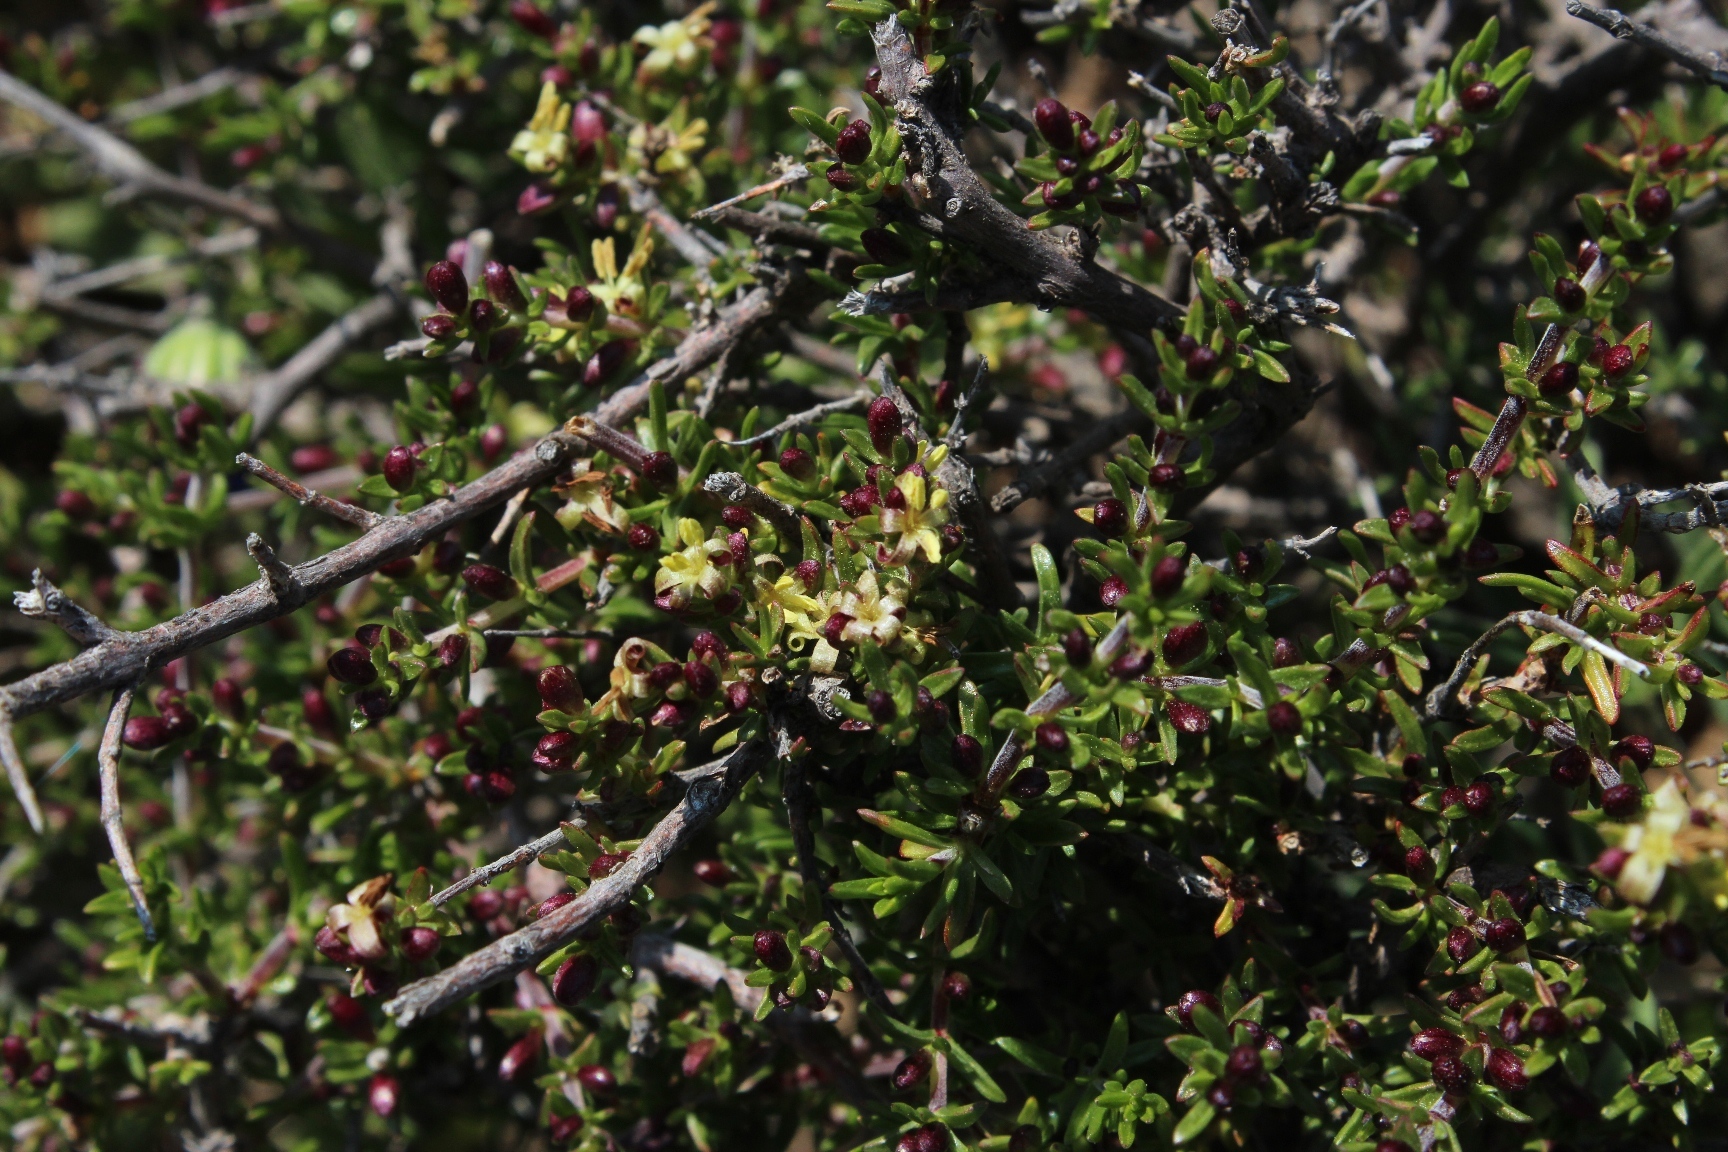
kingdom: Plantae
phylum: Tracheophyta
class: Magnoliopsida
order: Gentianales
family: Rubiaceae
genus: Nenax
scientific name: Nenax namaquensis
